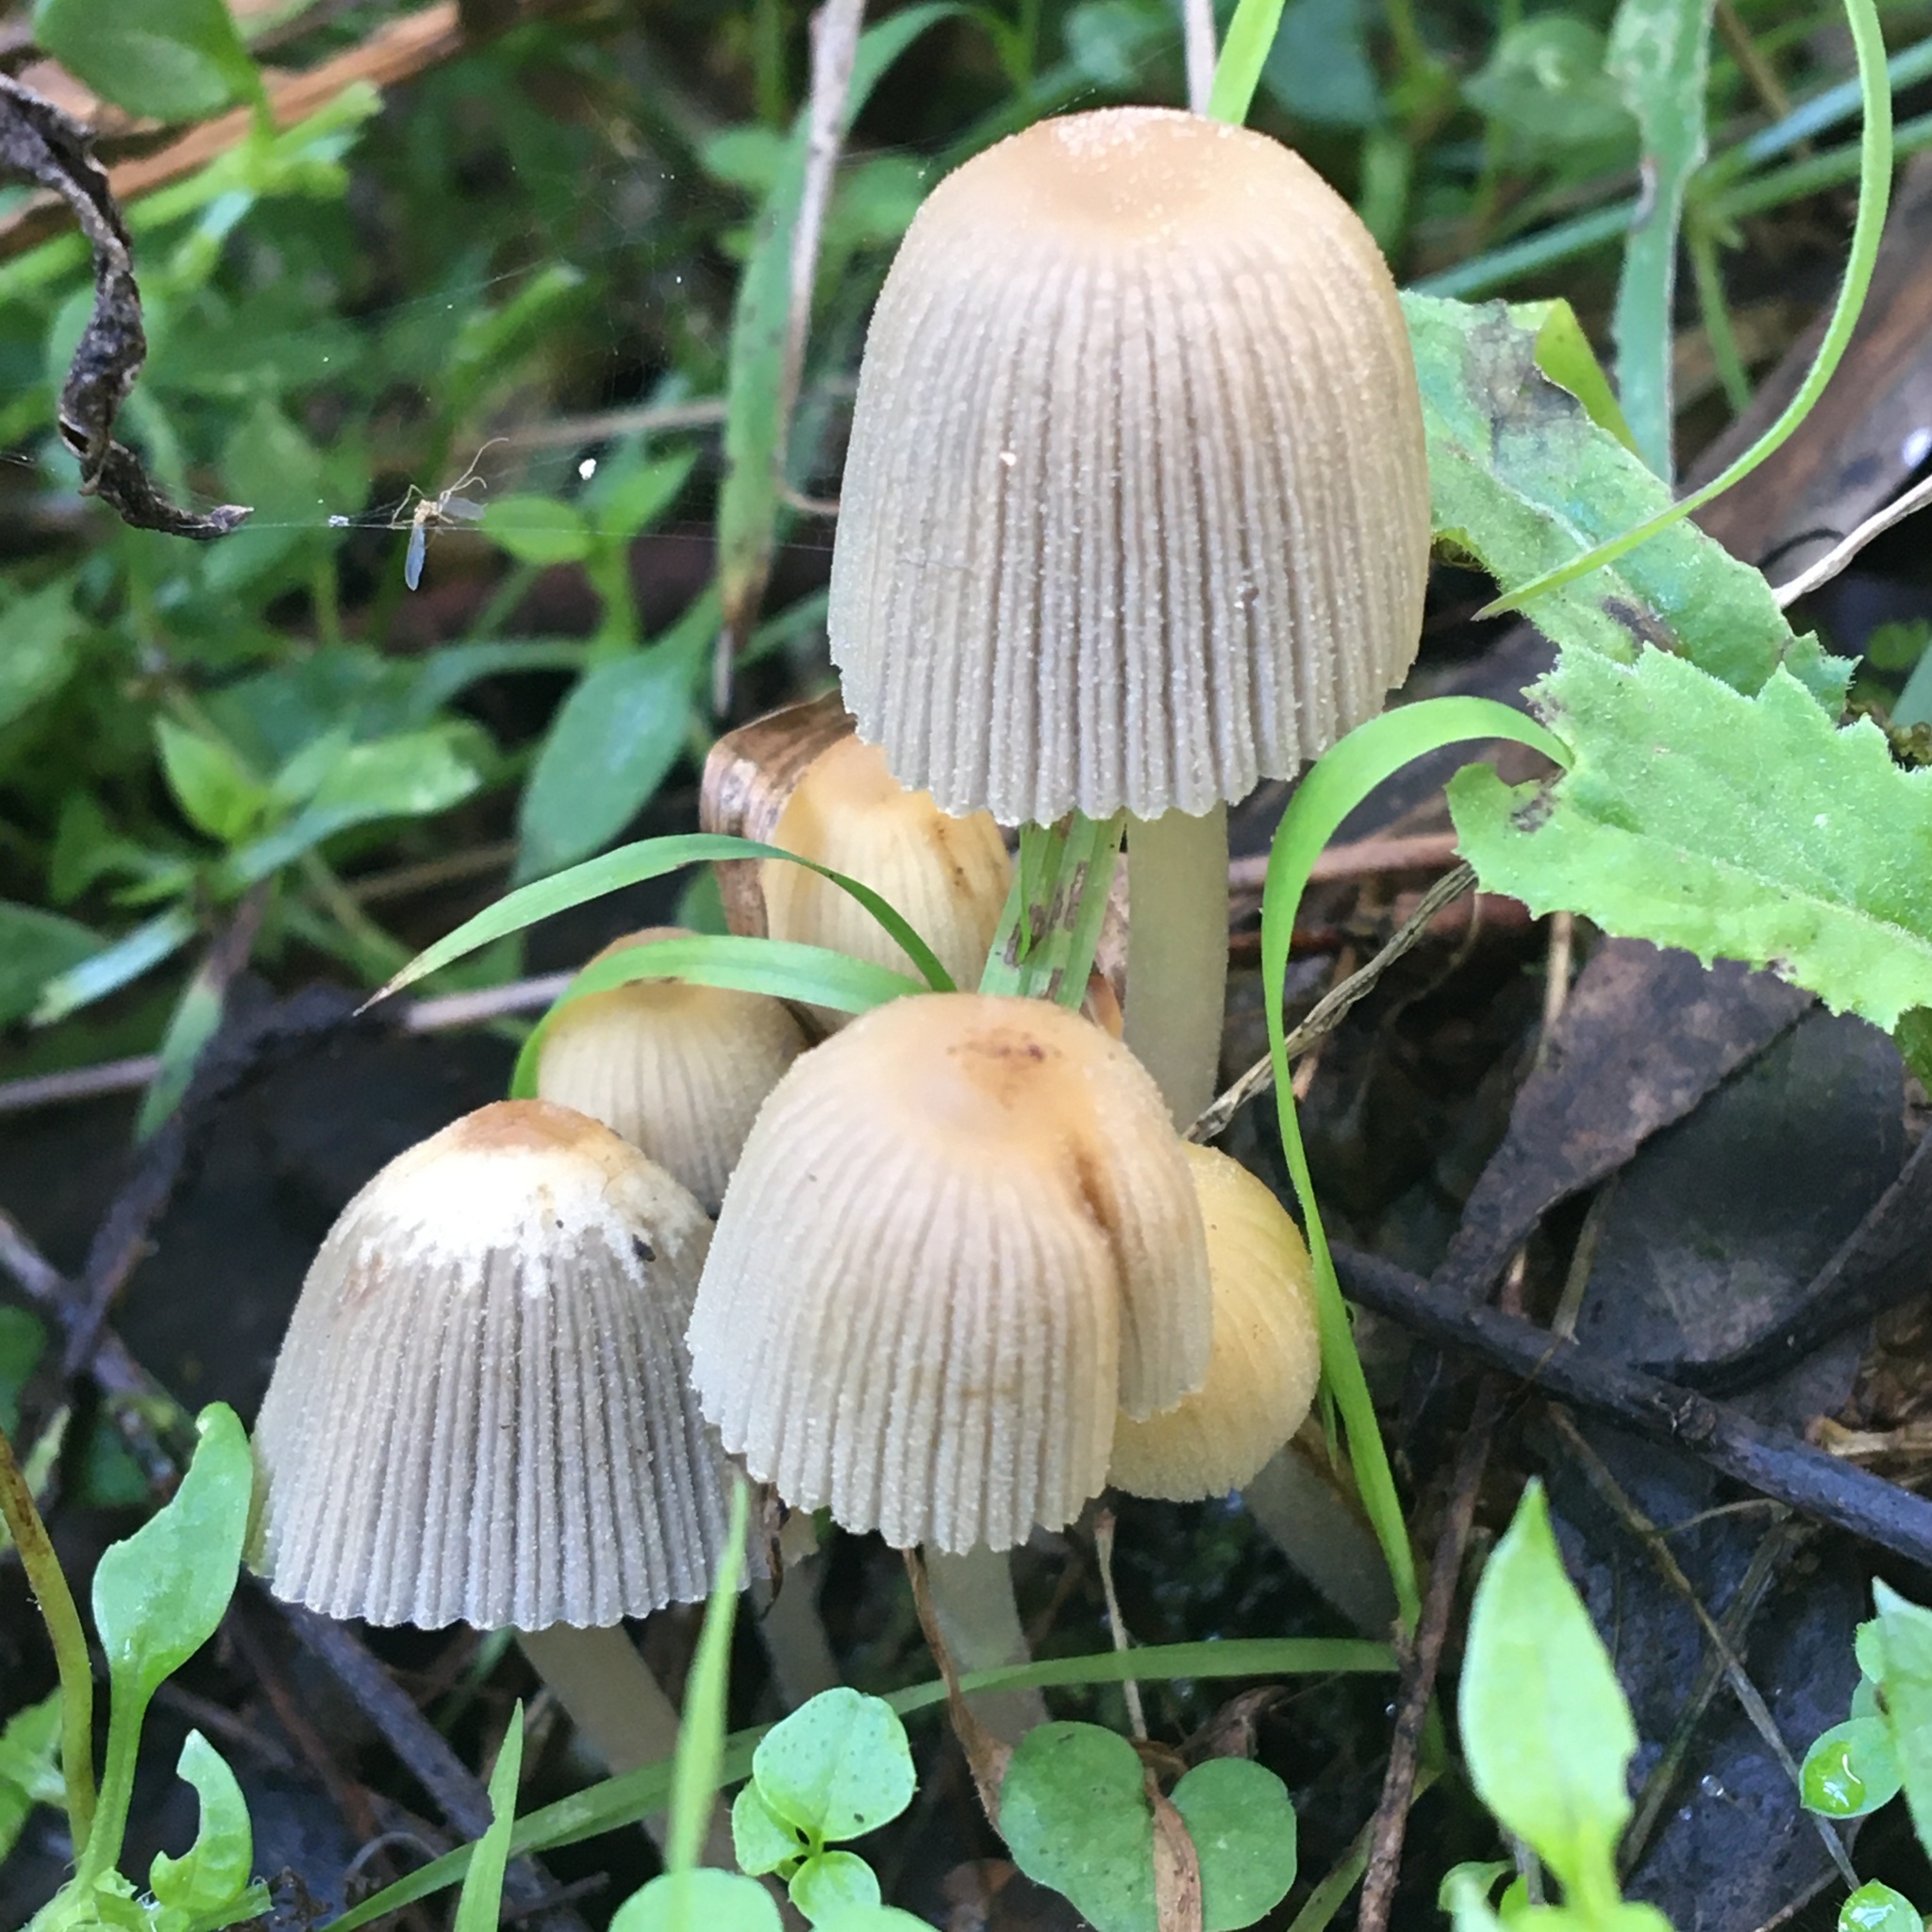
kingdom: Fungi
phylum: Basidiomycota
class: Agaricomycetes
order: Agaricales
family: Psathyrellaceae
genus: Coprinellus
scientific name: Coprinellus disseminatus
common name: Fairies' bonnets
